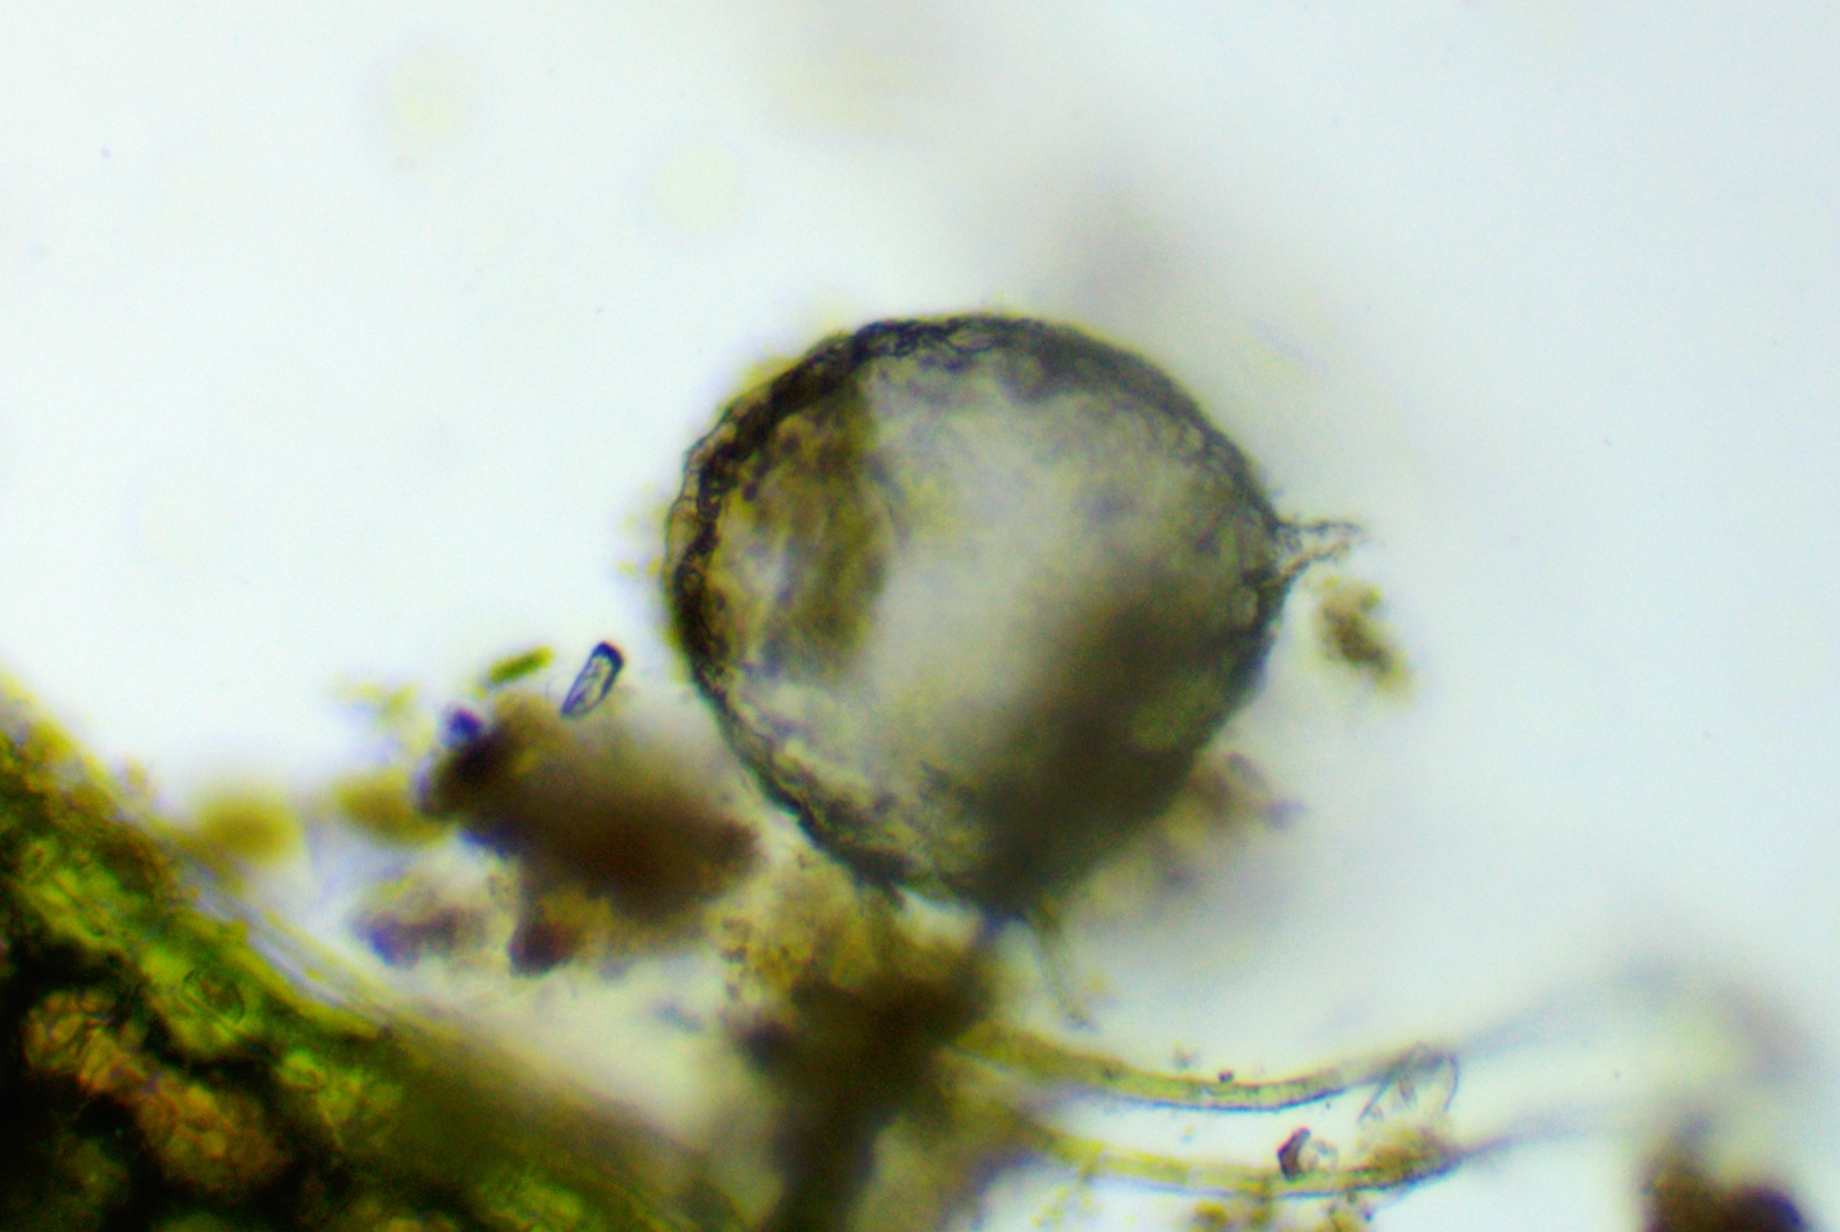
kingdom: Protozoa
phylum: Amoebozoa
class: Lobosa
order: Arcellinida
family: Lesquereusiidae
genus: Netzelia
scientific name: Netzelia
